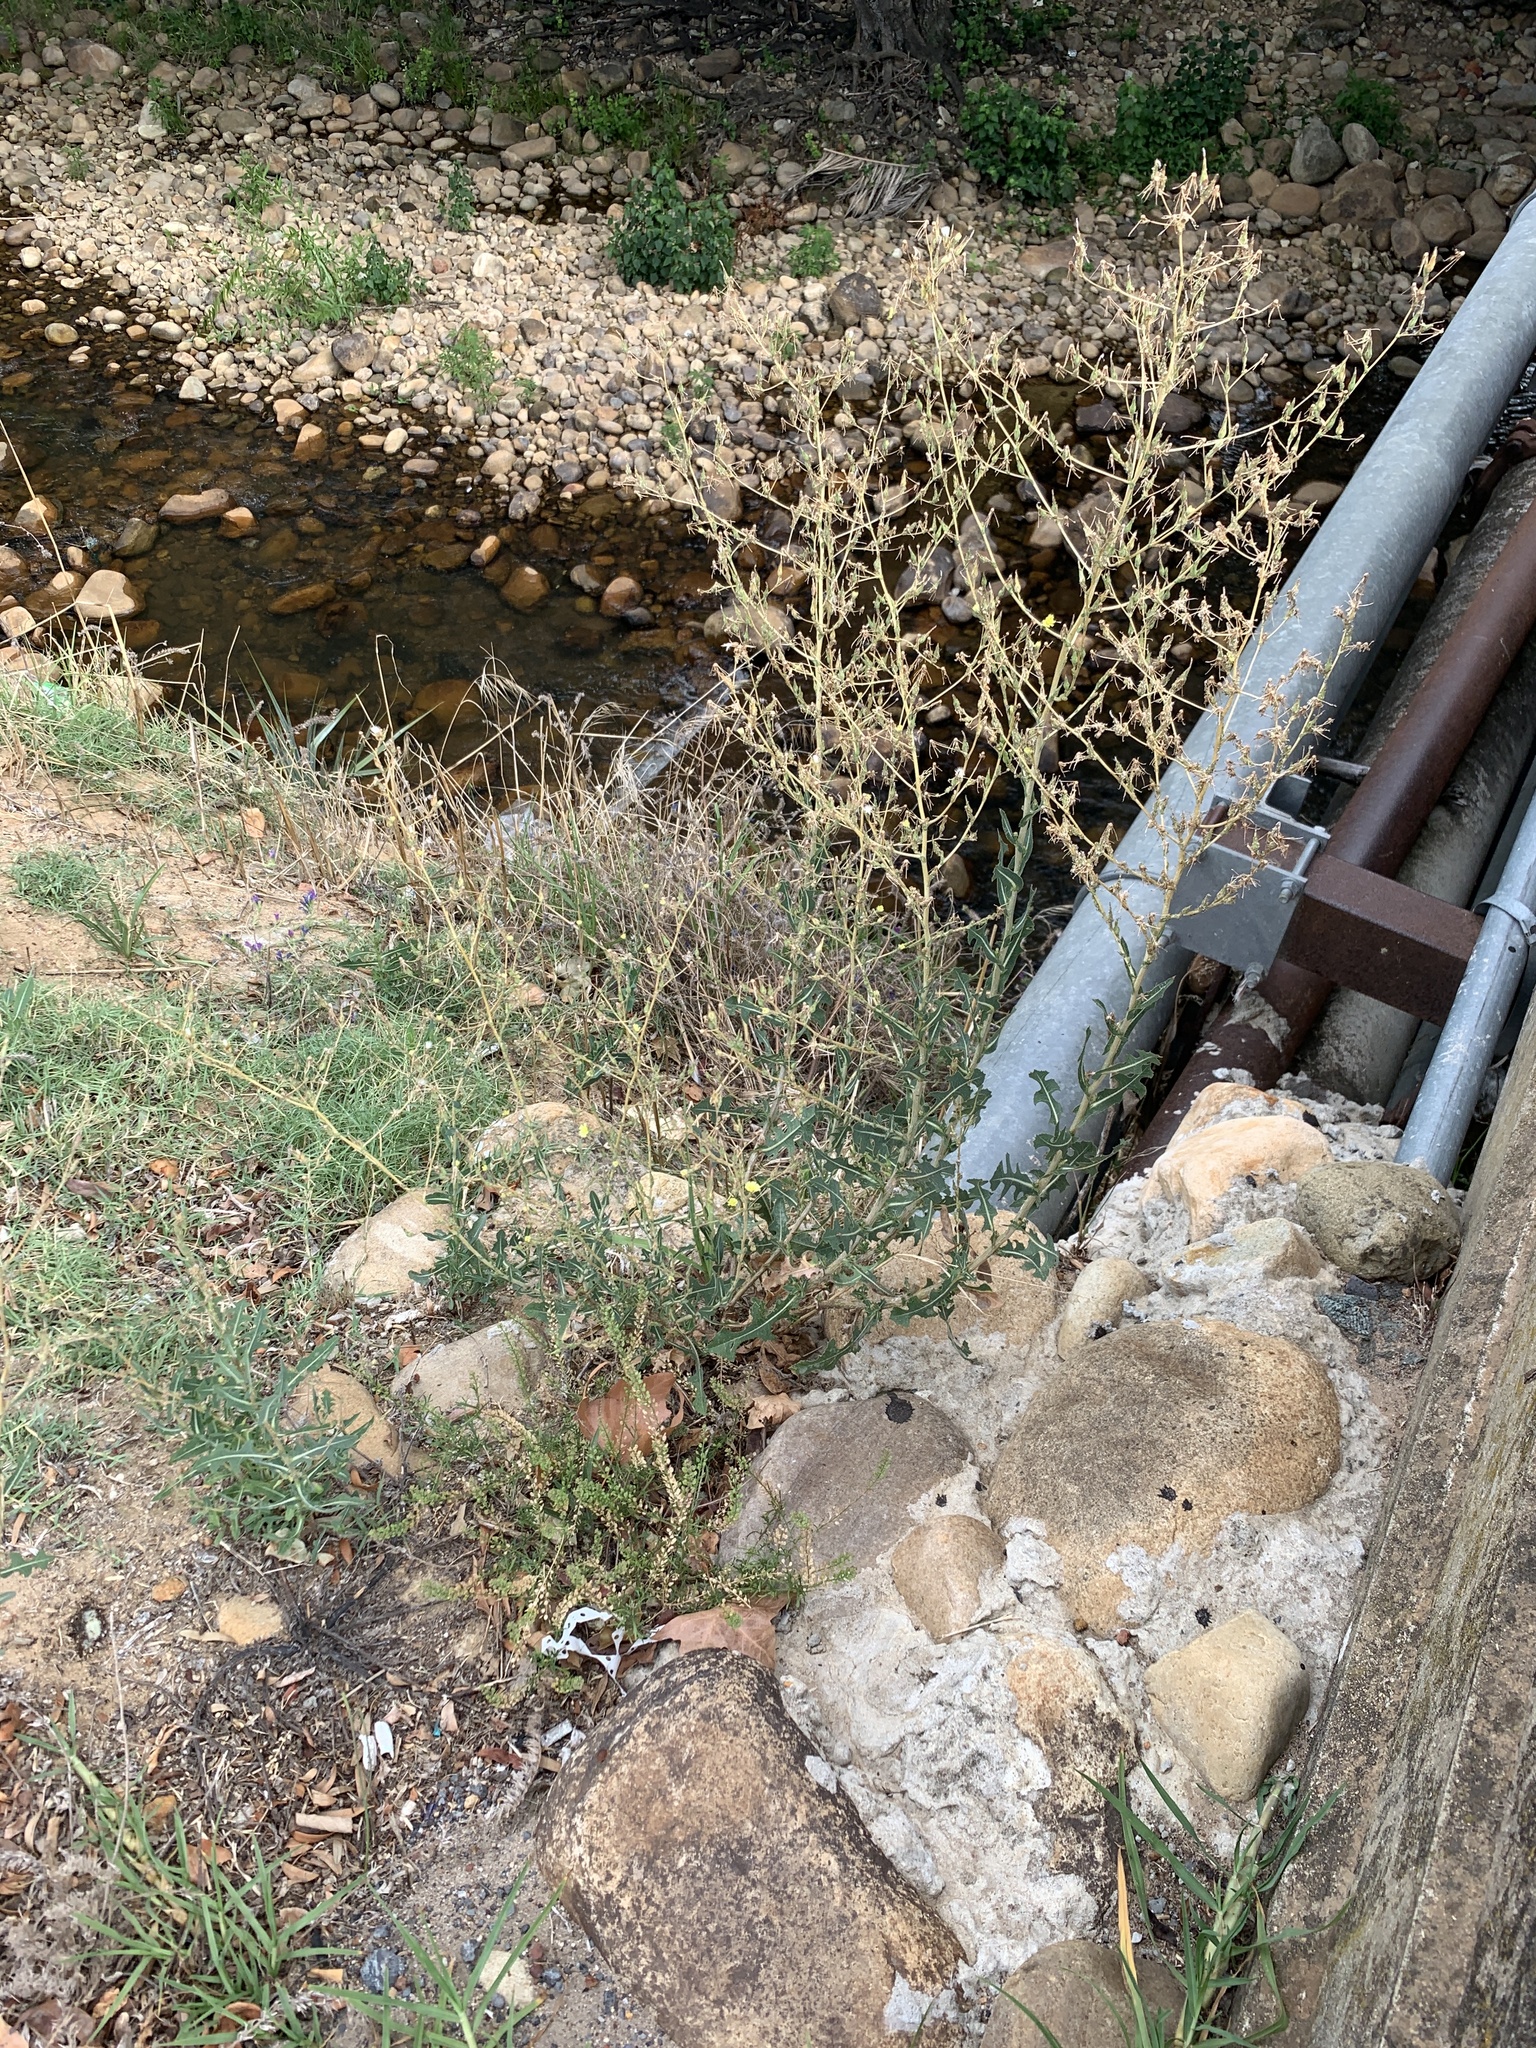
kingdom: Plantae
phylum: Tracheophyta
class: Magnoliopsida
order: Asterales
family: Asteraceae
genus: Lactuca
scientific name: Lactuca serriola
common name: Prickly lettuce
